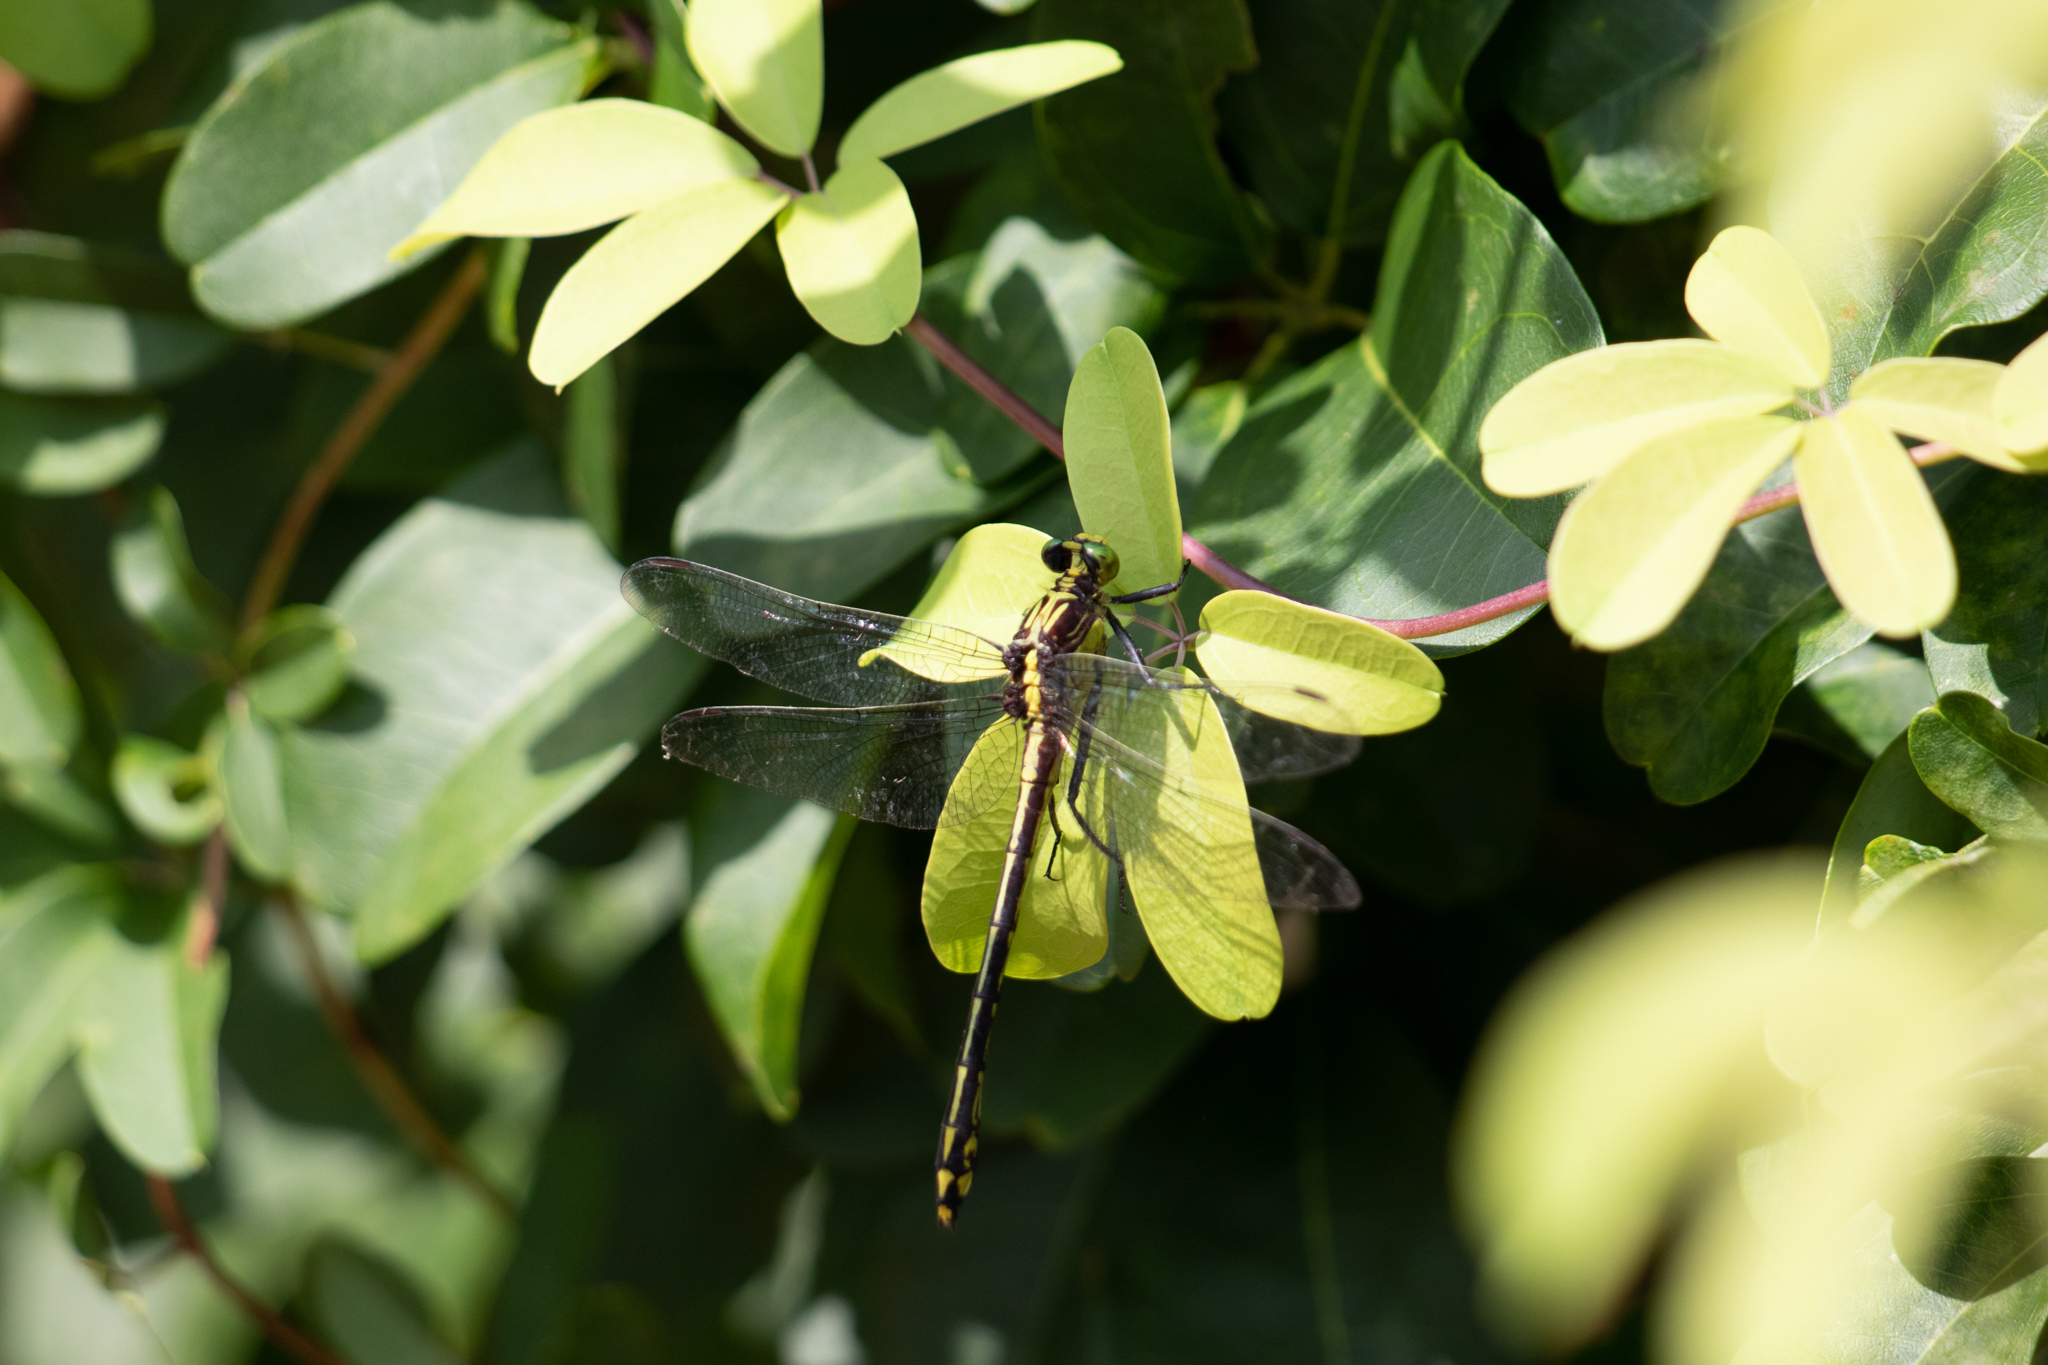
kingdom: Animalia
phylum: Arthropoda
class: Insecta
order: Odonata
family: Gomphidae
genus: Dromogomphus
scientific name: Dromogomphus spinosus
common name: Black-shouldered spinyleg
